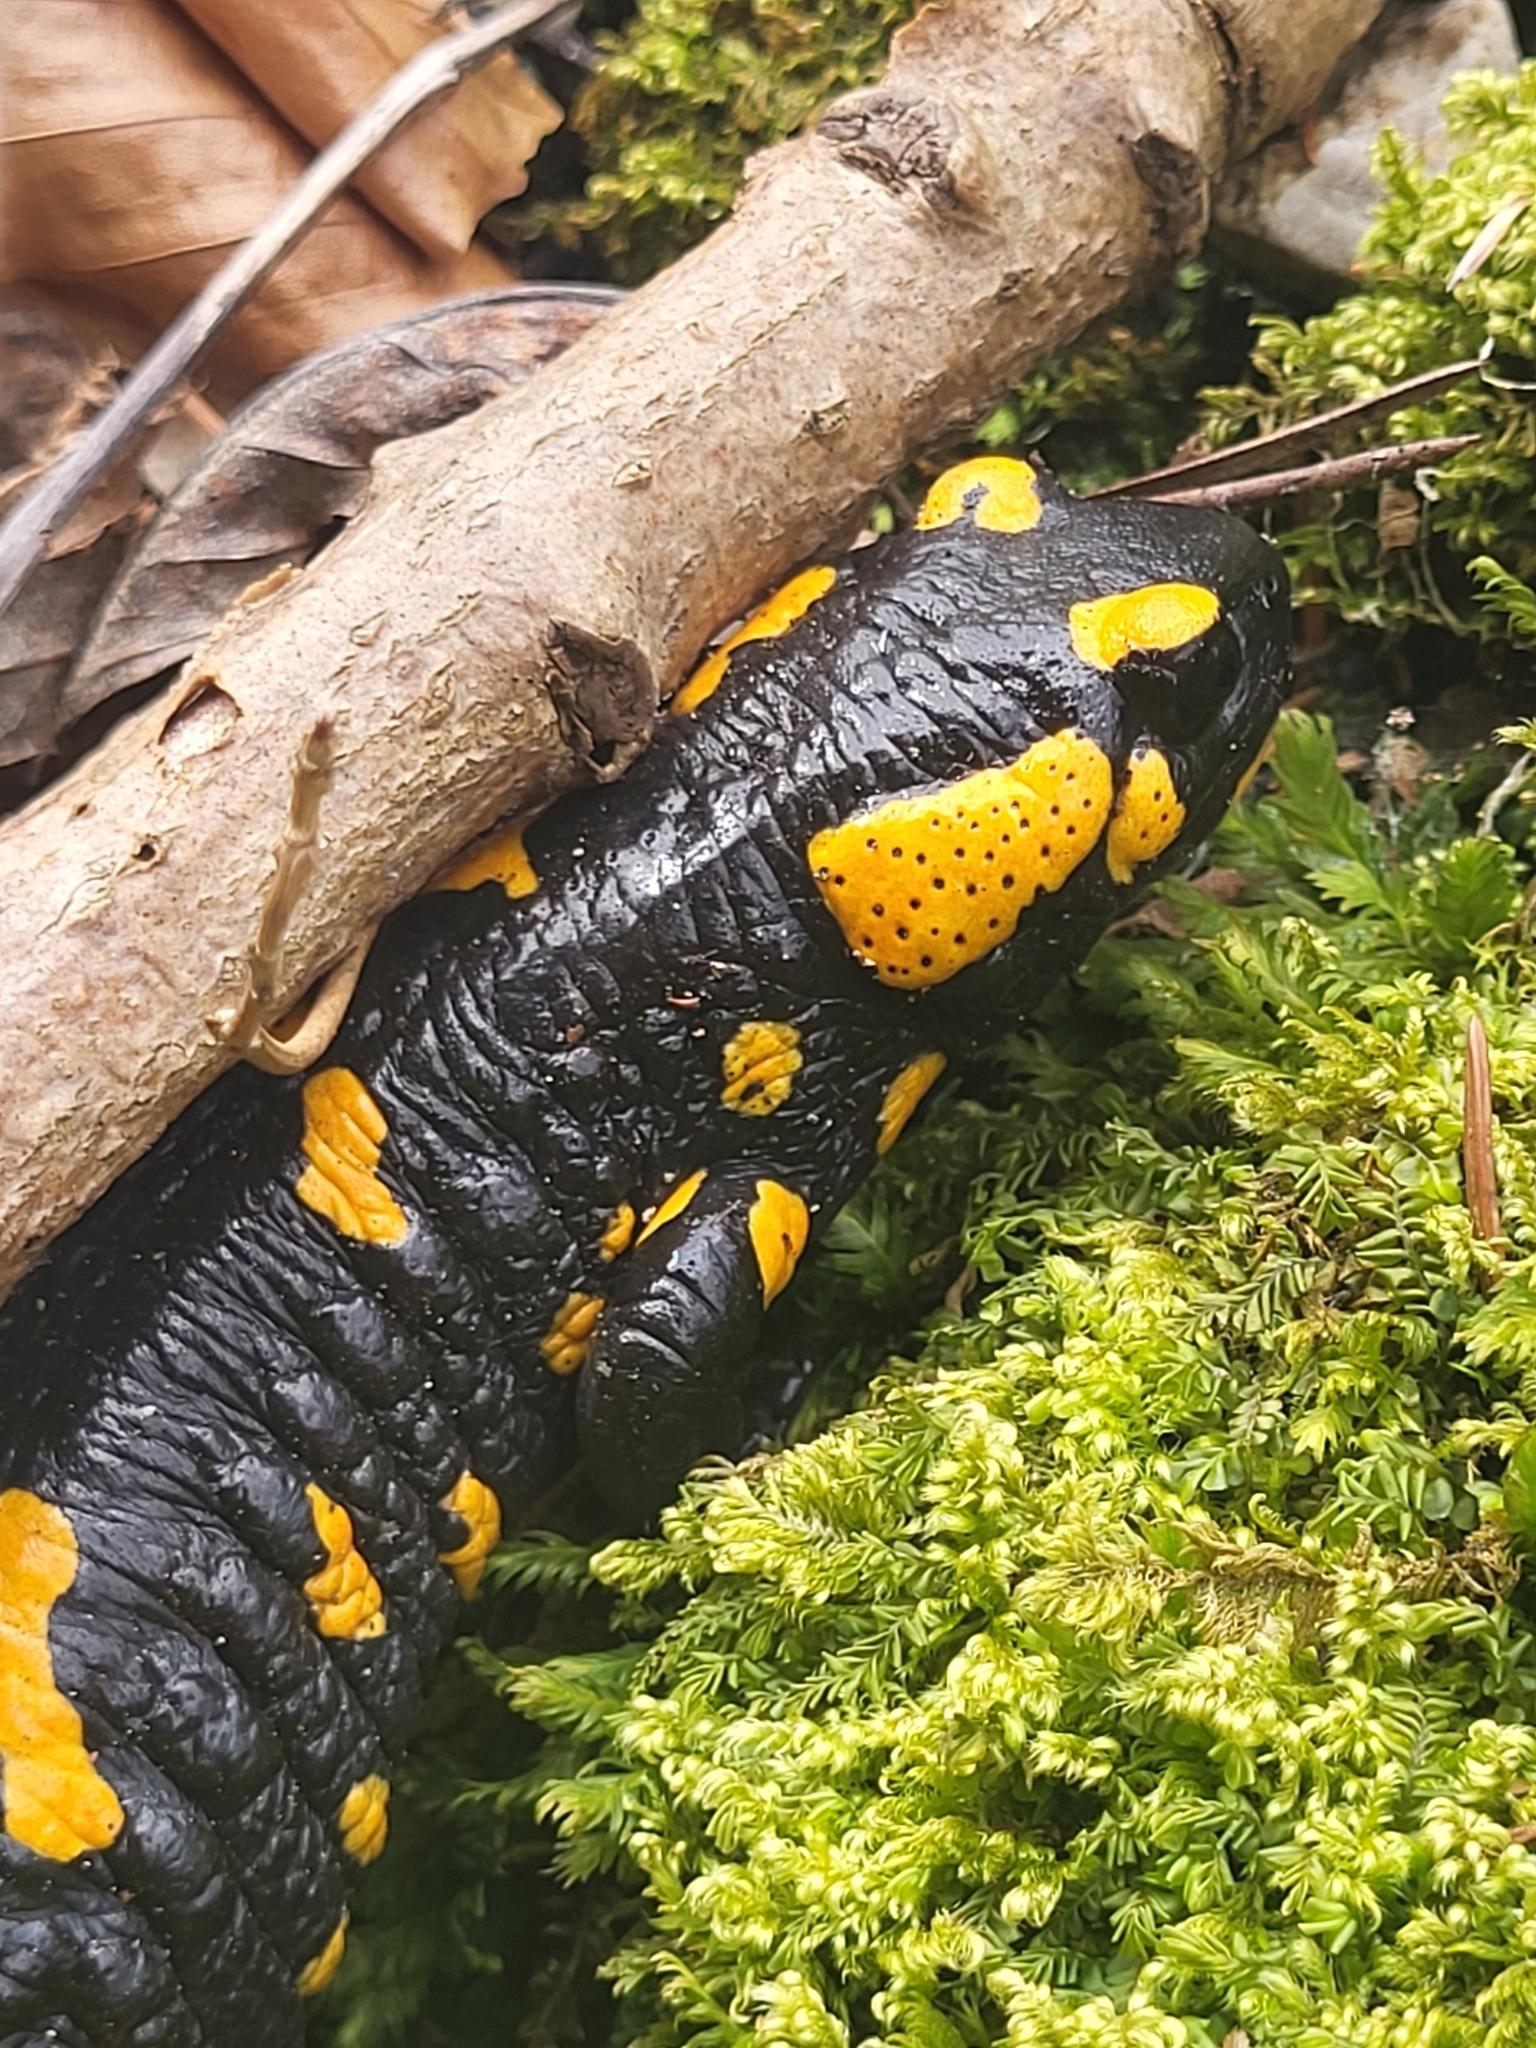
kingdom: Animalia
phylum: Chordata
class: Amphibia
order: Caudata
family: Salamandridae
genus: Salamandra
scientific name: Salamandra salamandra
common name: Fire salamander
